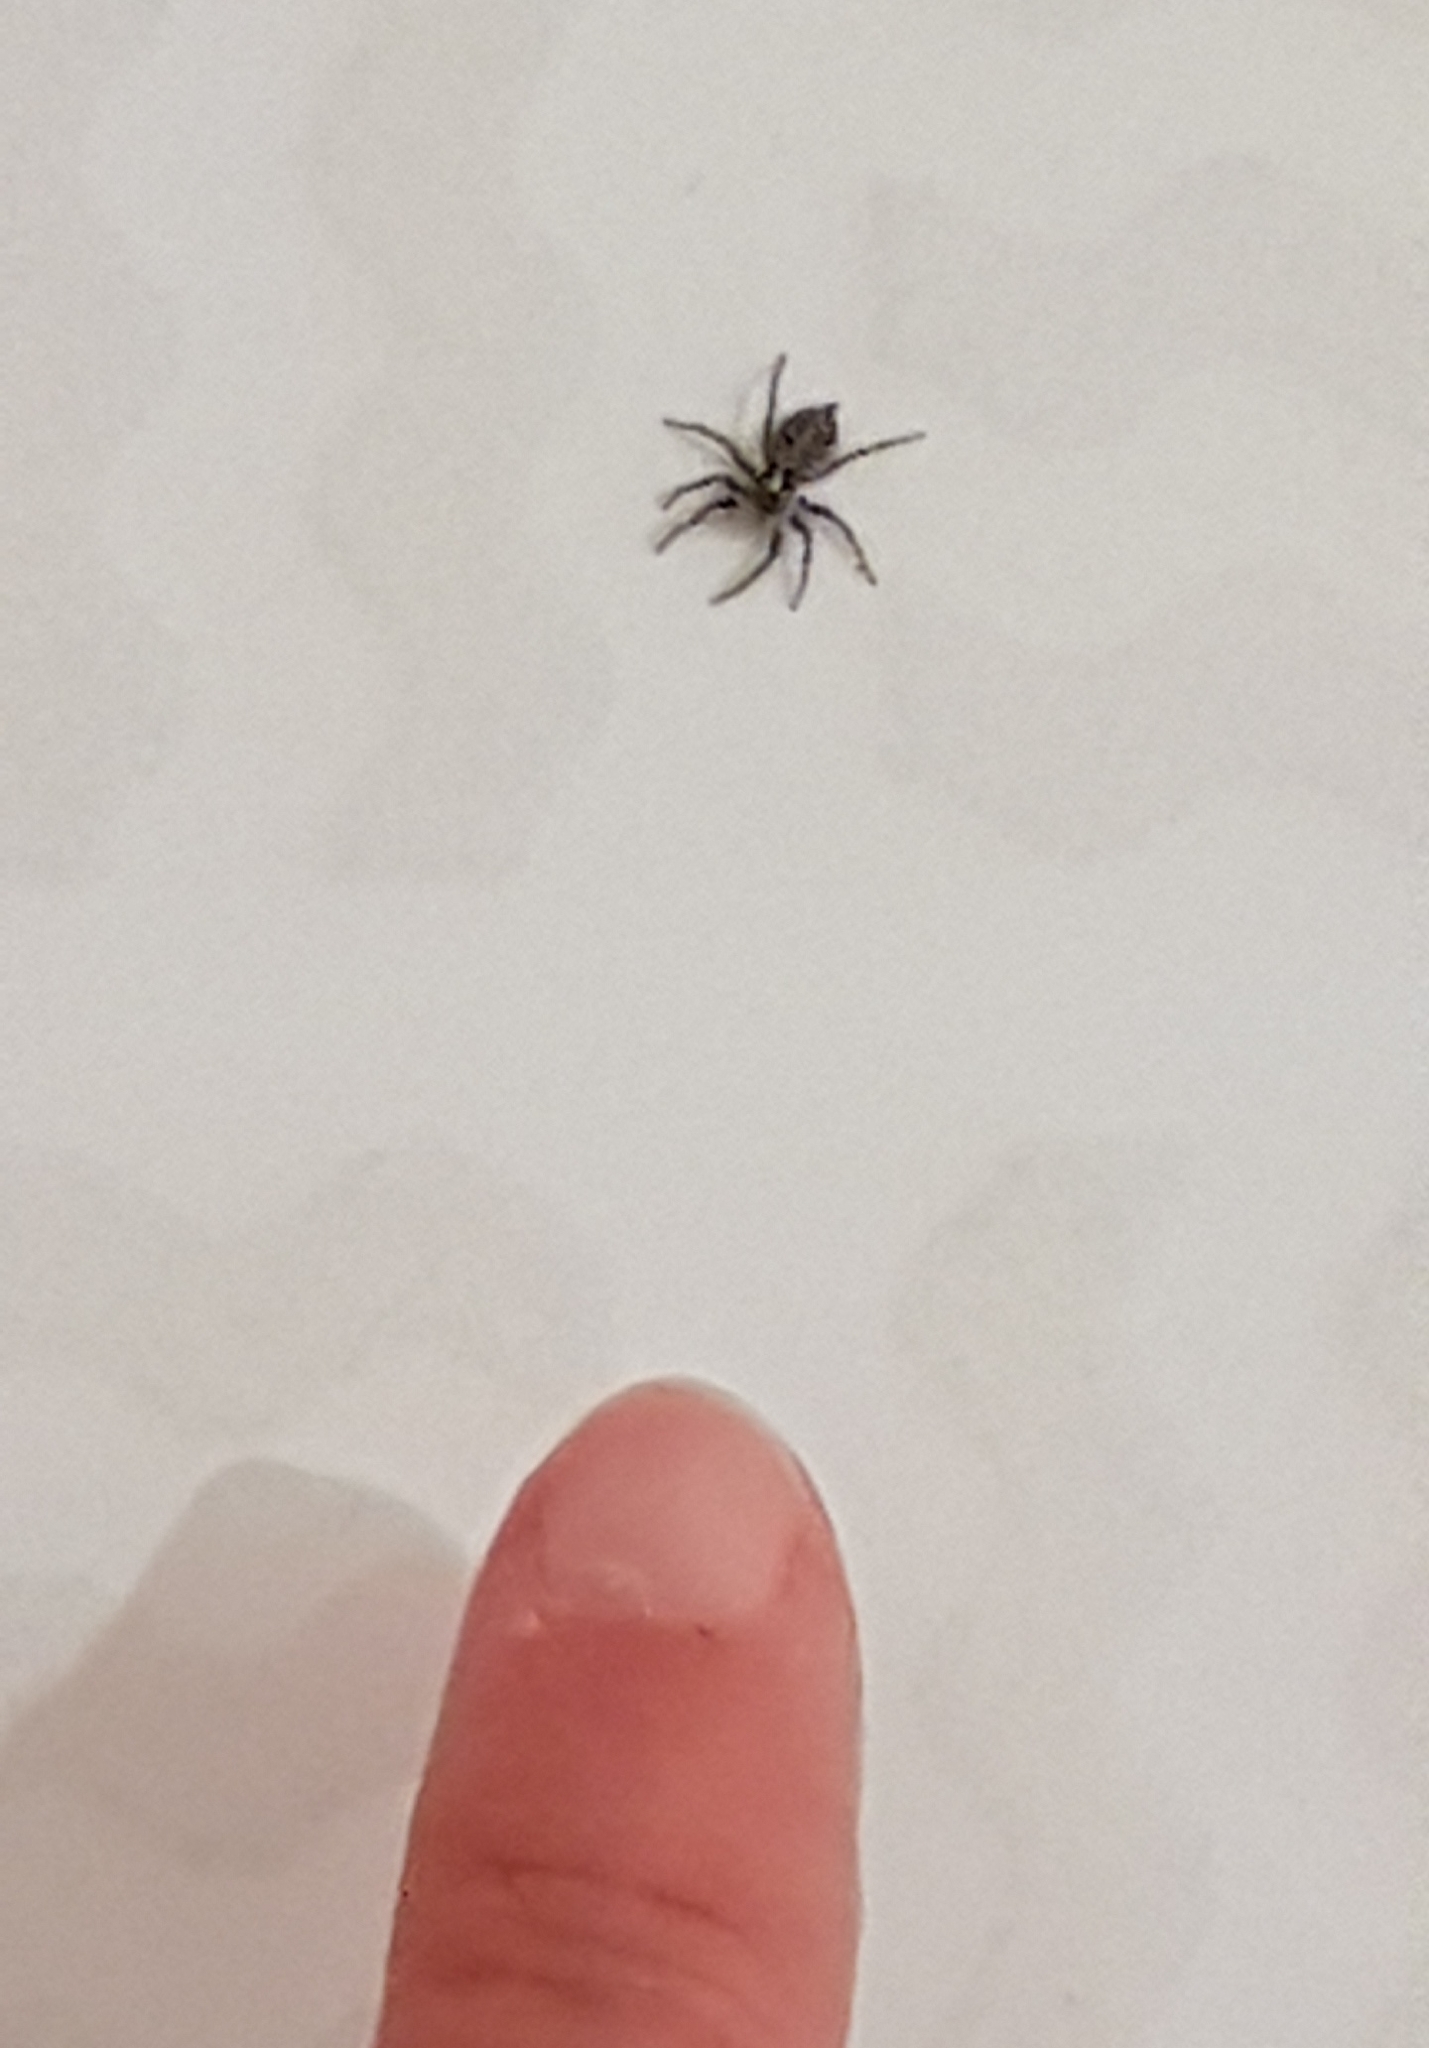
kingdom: Animalia
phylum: Arthropoda
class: Arachnida
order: Araneae
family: Salticidae
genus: Menemerus
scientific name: Menemerus semilimbatus
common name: Jumping spider
